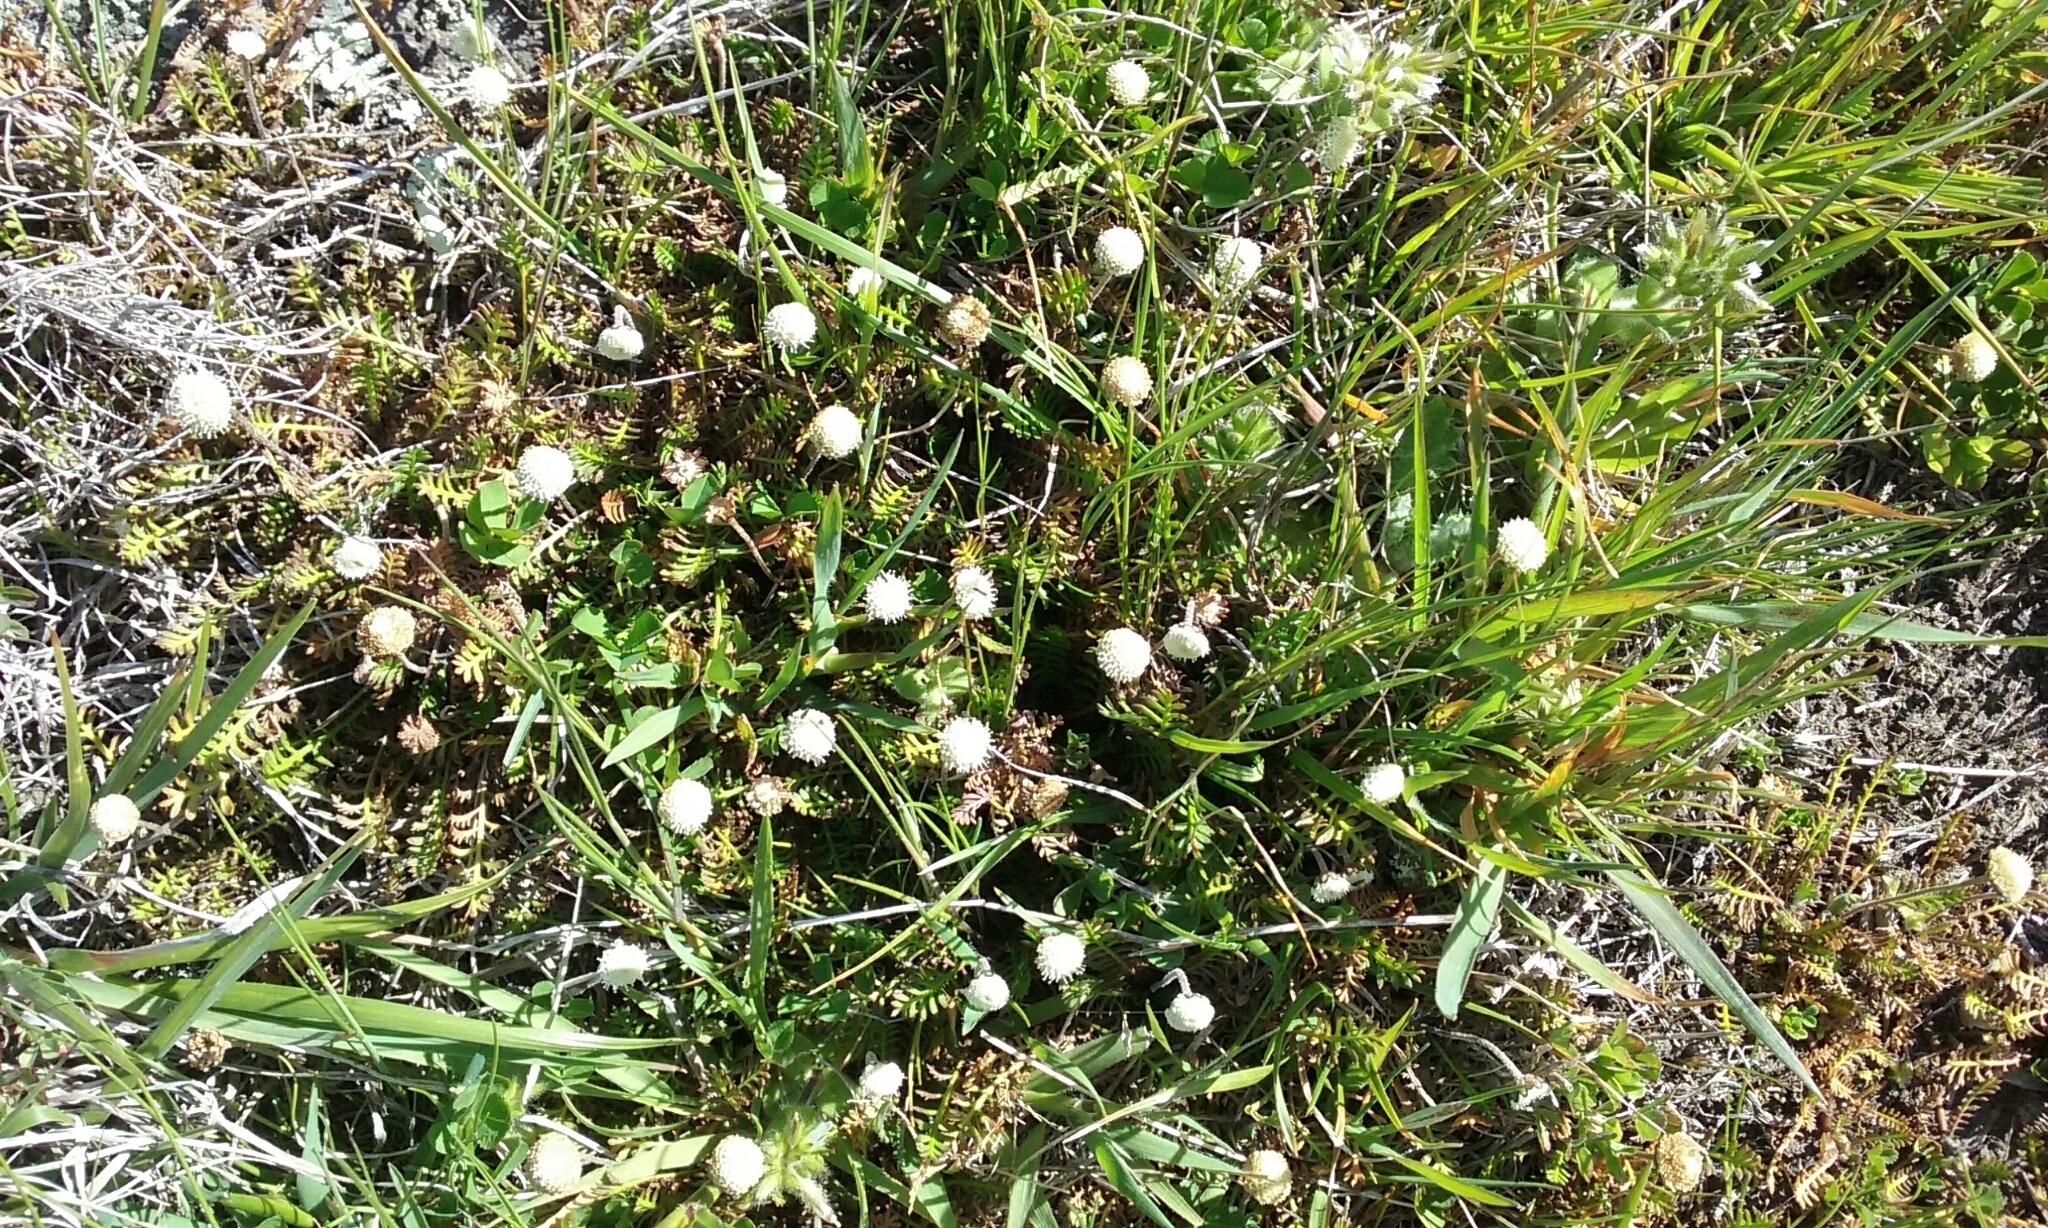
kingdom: Plantae
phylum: Tracheophyta
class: Magnoliopsida
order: Asterales
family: Asteraceae
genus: Leptinella
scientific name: Leptinella minor
